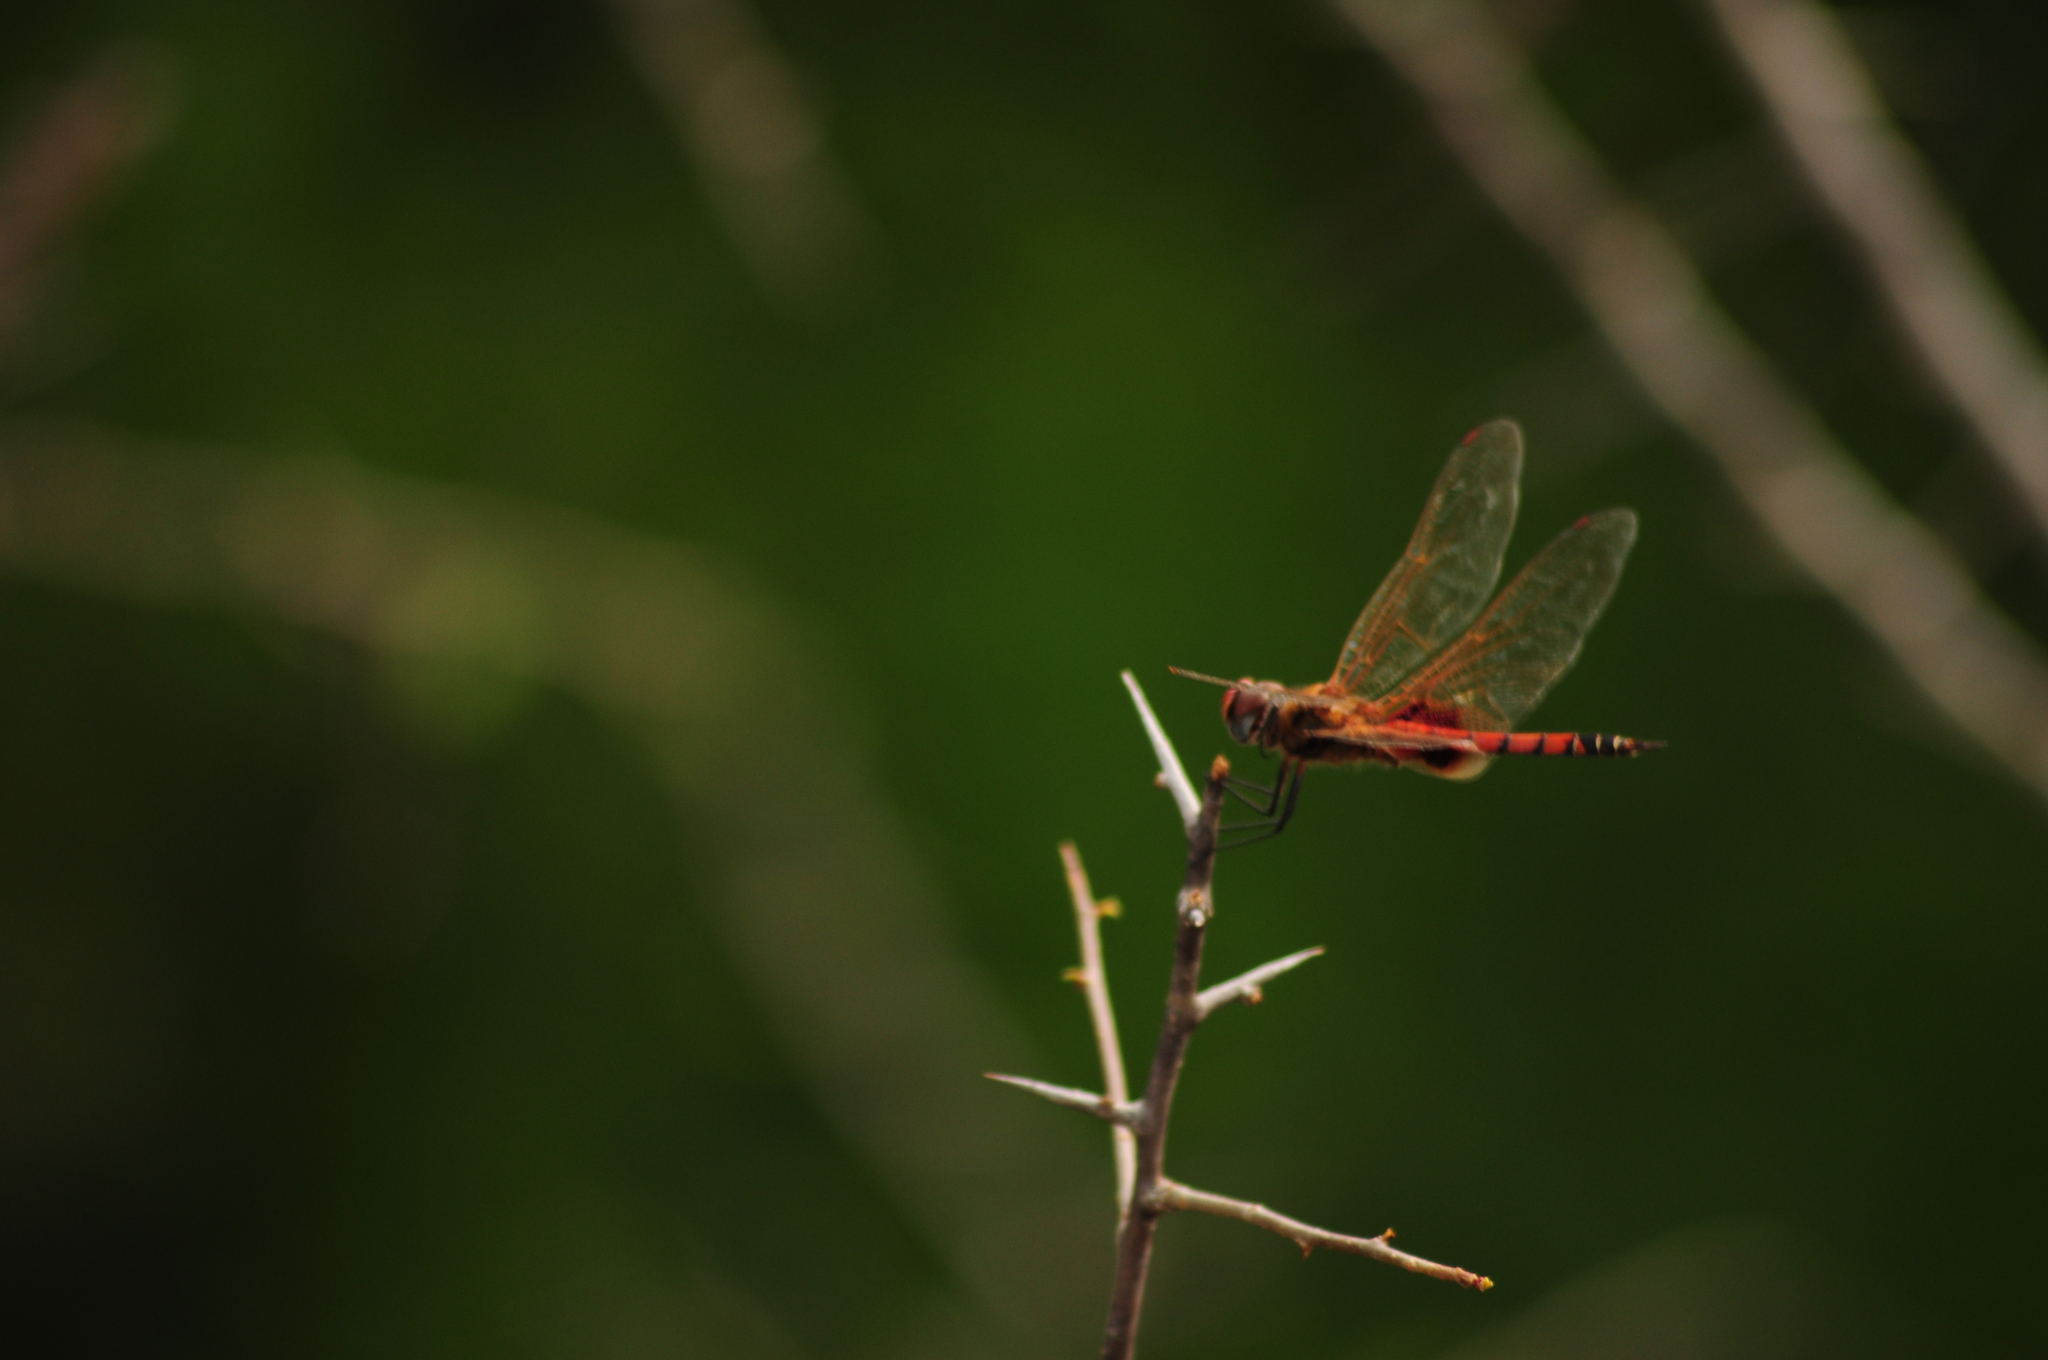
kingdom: Animalia
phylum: Arthropoda
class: Insecta
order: Odonata
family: Libellulidae
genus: Tramea
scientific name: Tramea basilaris
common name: Keyhole glider
